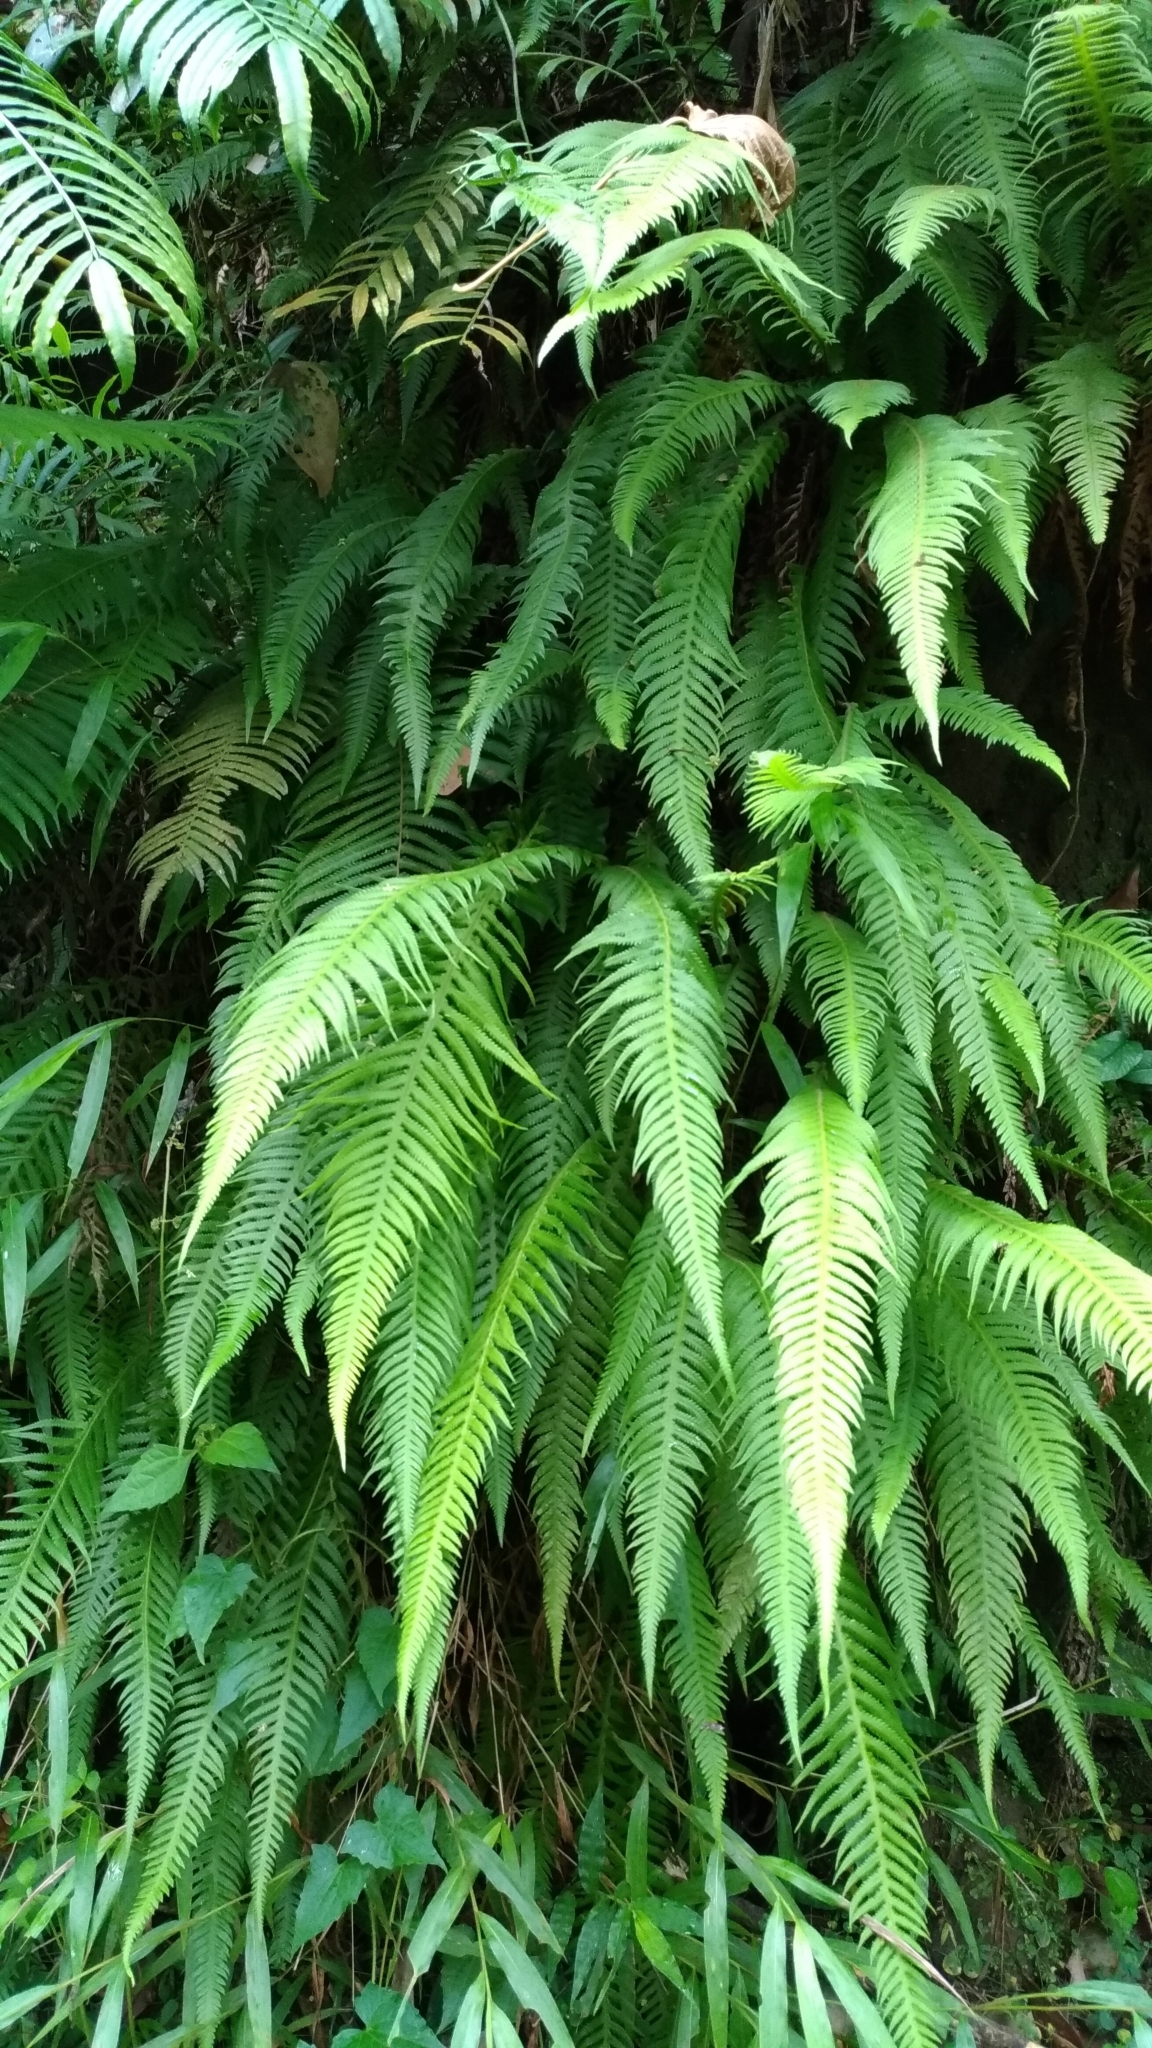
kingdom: Plantae
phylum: Tracheophyta
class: Polypodiopsida
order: Polypodiales
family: Thelypteridaceae
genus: Phegopteris
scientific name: Phegopteris decursive-pinnata
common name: Japanese beech fern
